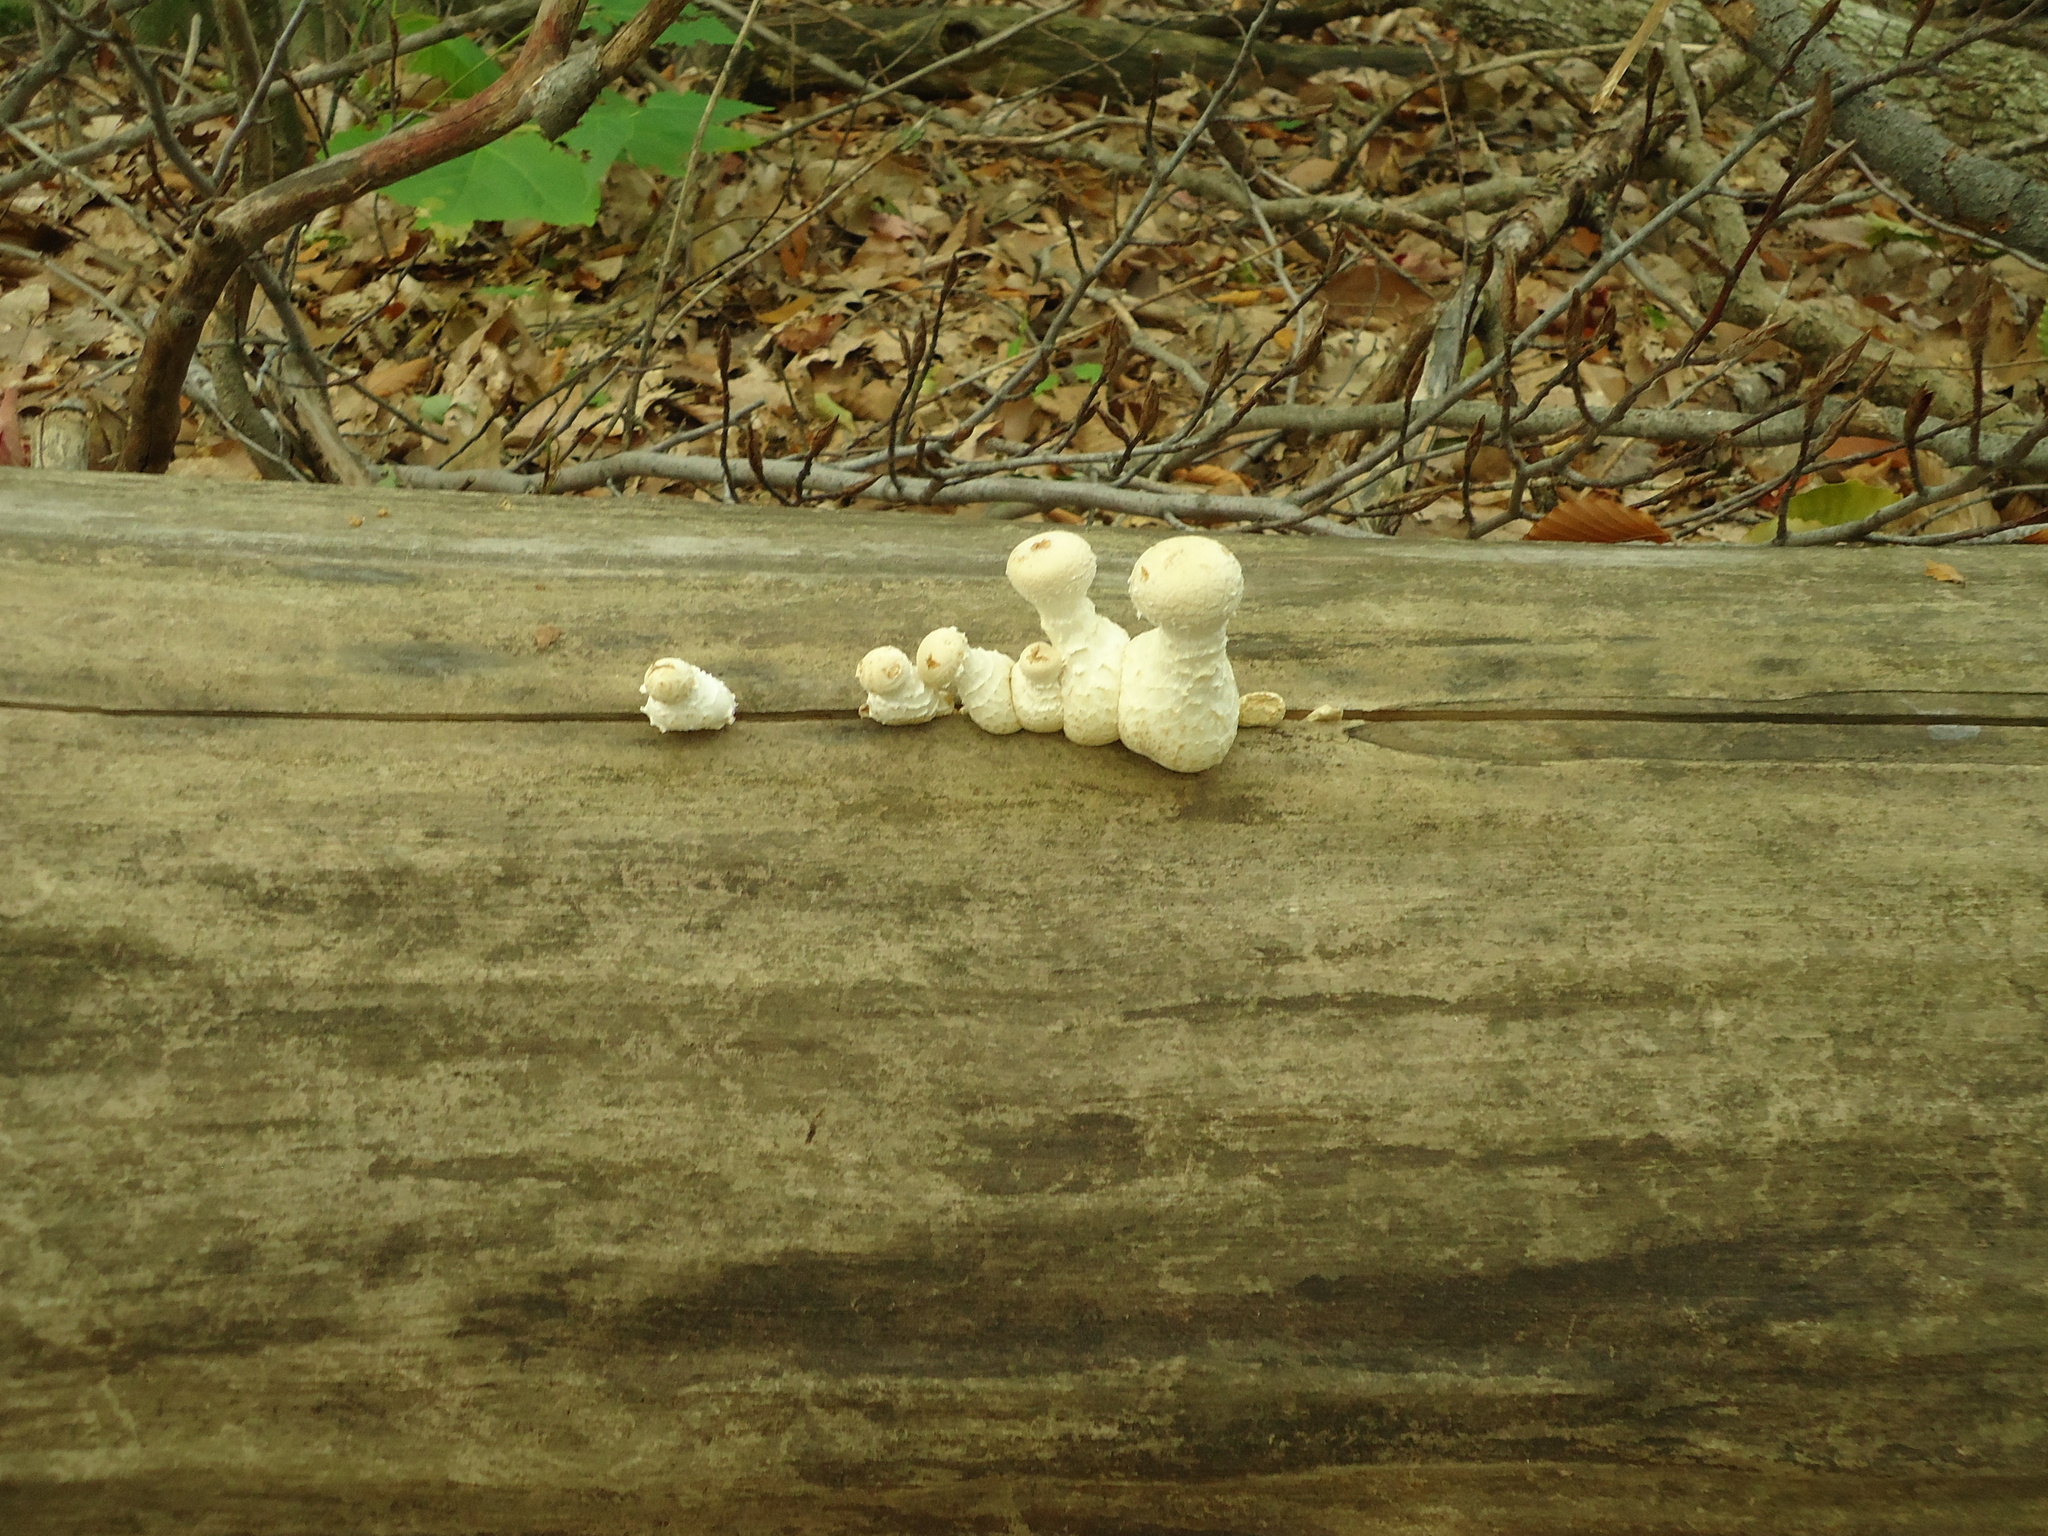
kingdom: Fungi
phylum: Basidiomycota
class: Agaricomycetes
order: Agaricales
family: Strophariaceae
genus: Pholiota
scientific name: Pholiota populnea
